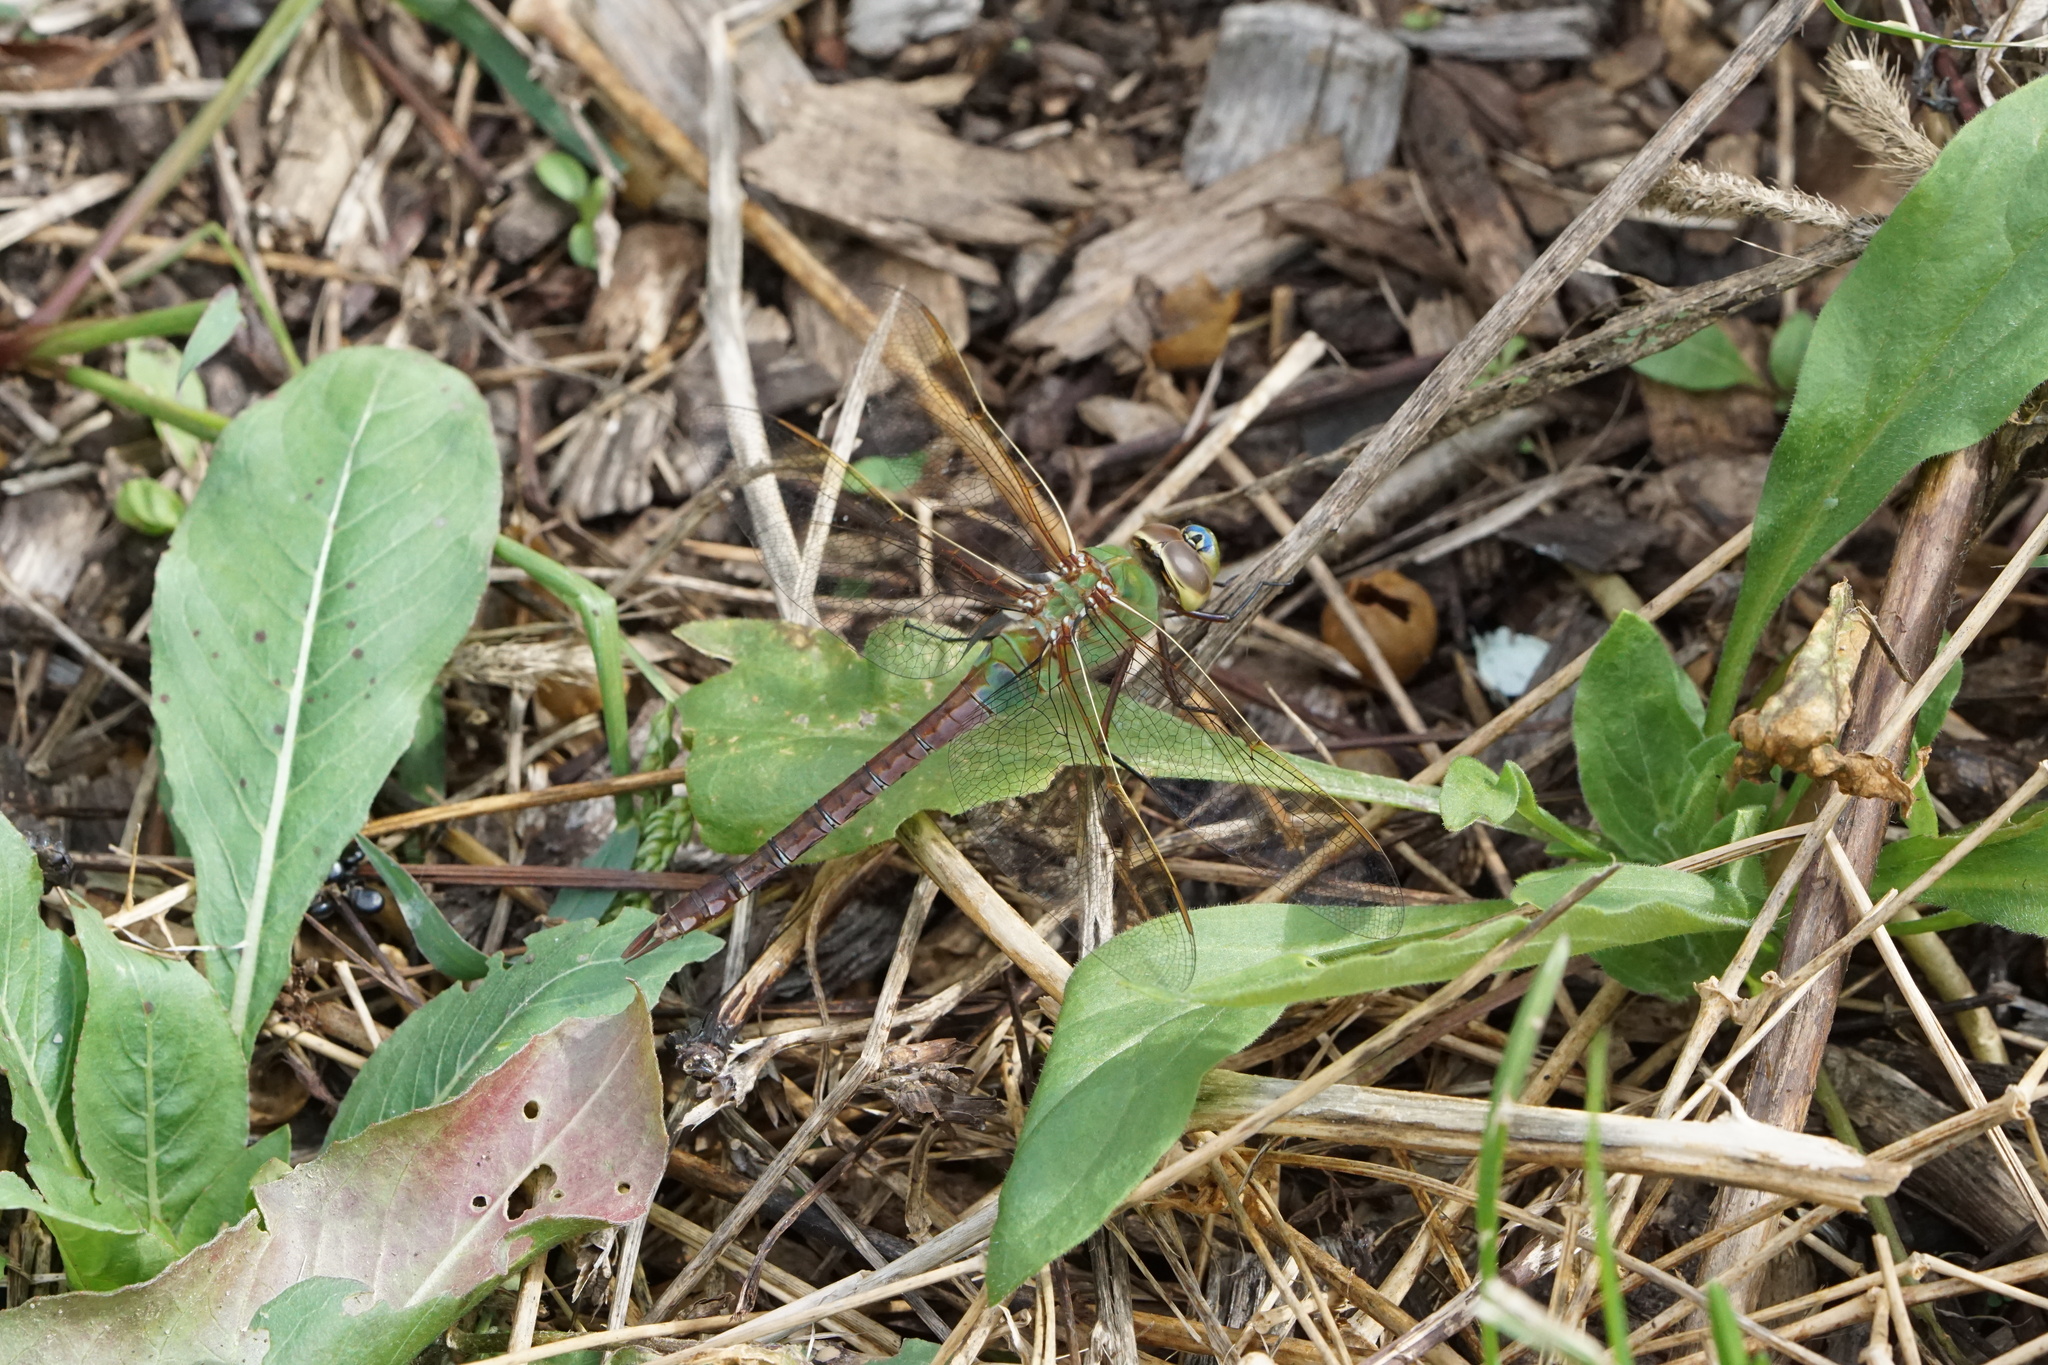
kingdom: Animalia
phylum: Arthropoda
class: Insecta
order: Odonata
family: Aeshnidae
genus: Anax
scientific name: Anax junius
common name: Common green darner
